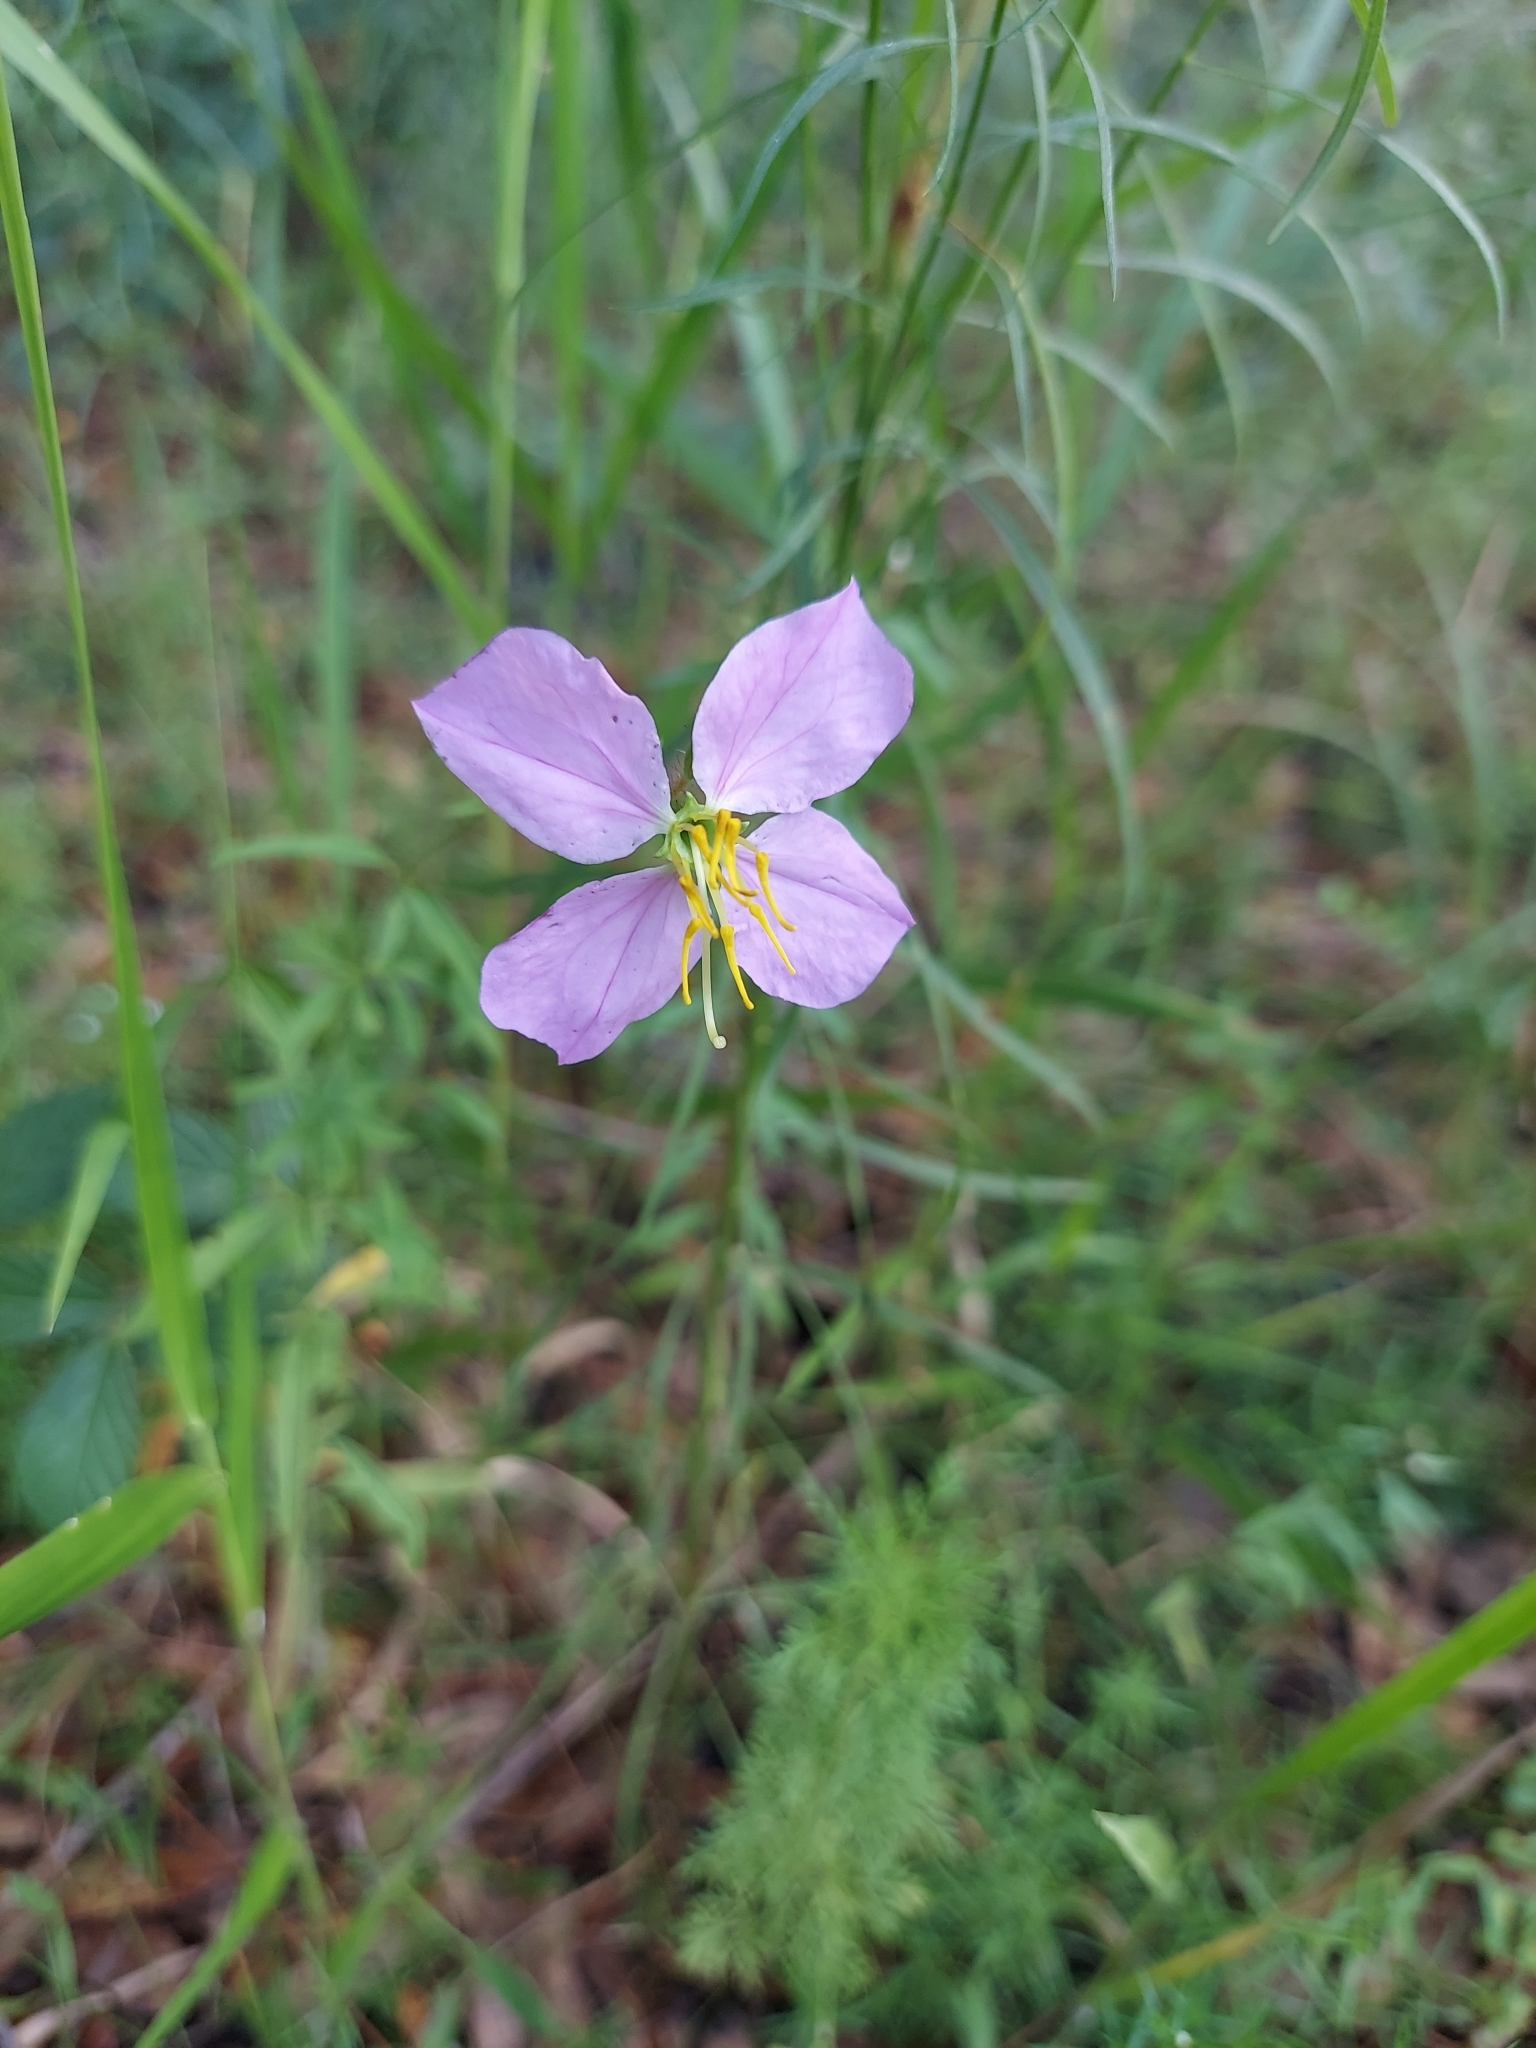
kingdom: Plantae
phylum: Tracheophyta
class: Magnoliopsida
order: Myrtales
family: Melastomataceae
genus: Rhexia
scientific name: Rhexia mariana
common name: Dull meadow-pitcher
